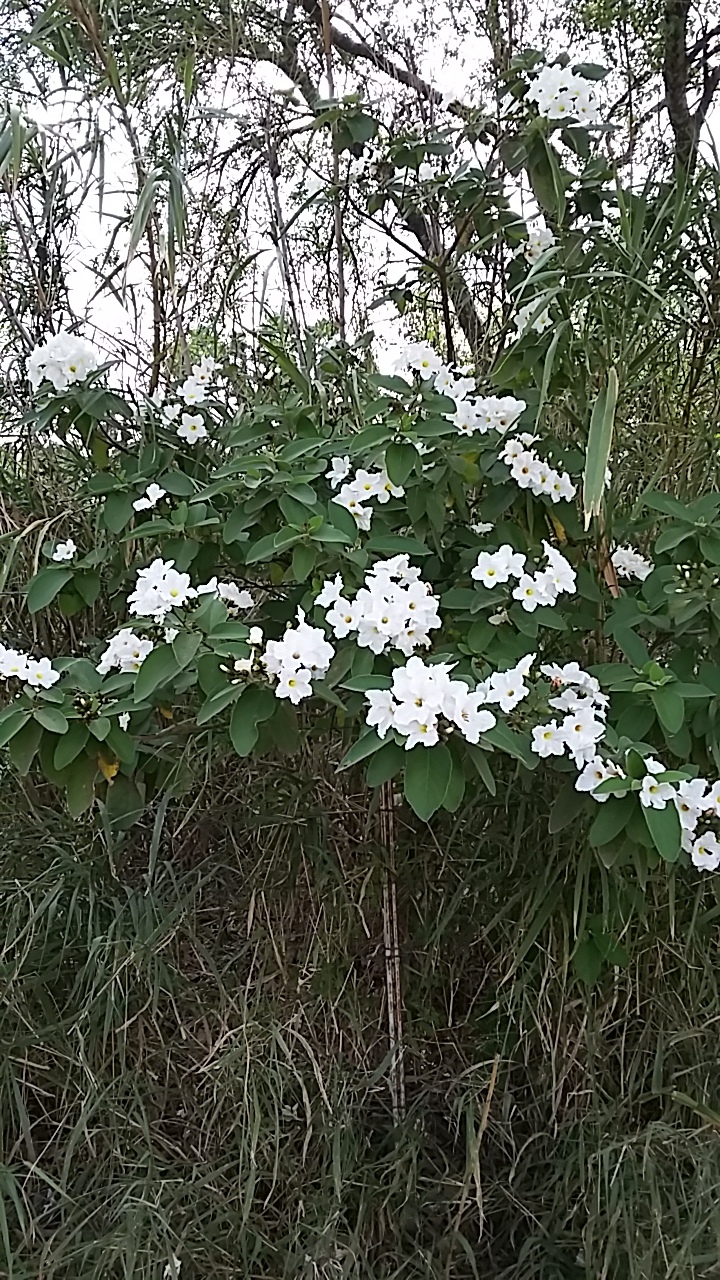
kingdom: Plantae
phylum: Tracheophyta
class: Magnoliopsida
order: Boraginales
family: Cordiaceae
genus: Cordia
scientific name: Cordia boissieri
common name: Mexican-olive
